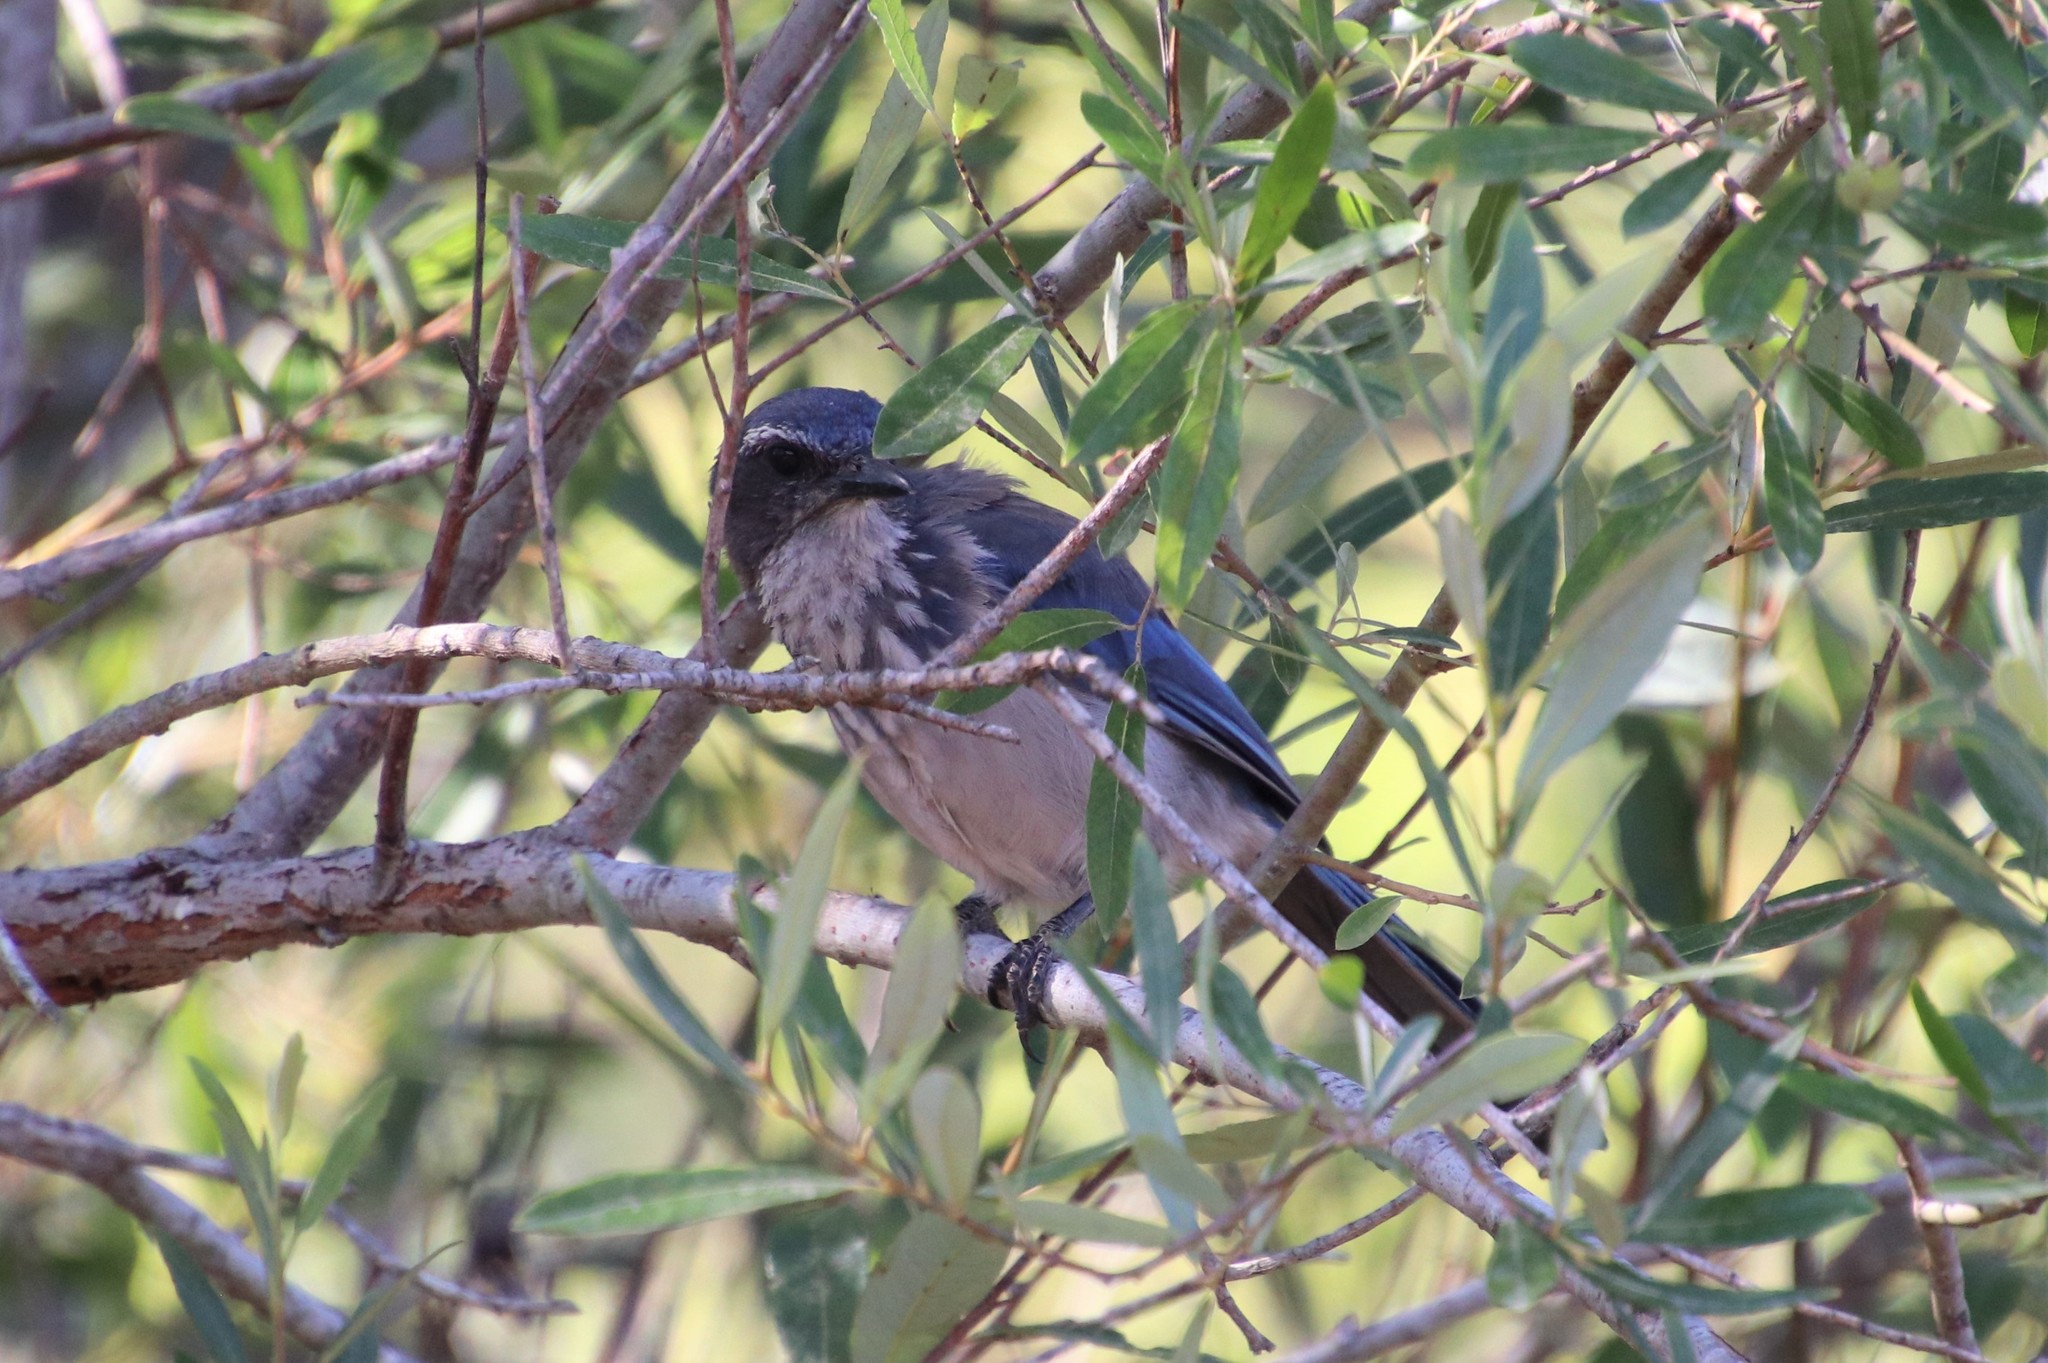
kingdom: Animalia
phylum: Chordata
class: Aves
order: Passeriformes
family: Corvidae
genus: Aphelocoma
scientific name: Aphelocoma californica
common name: California scrub-jay
